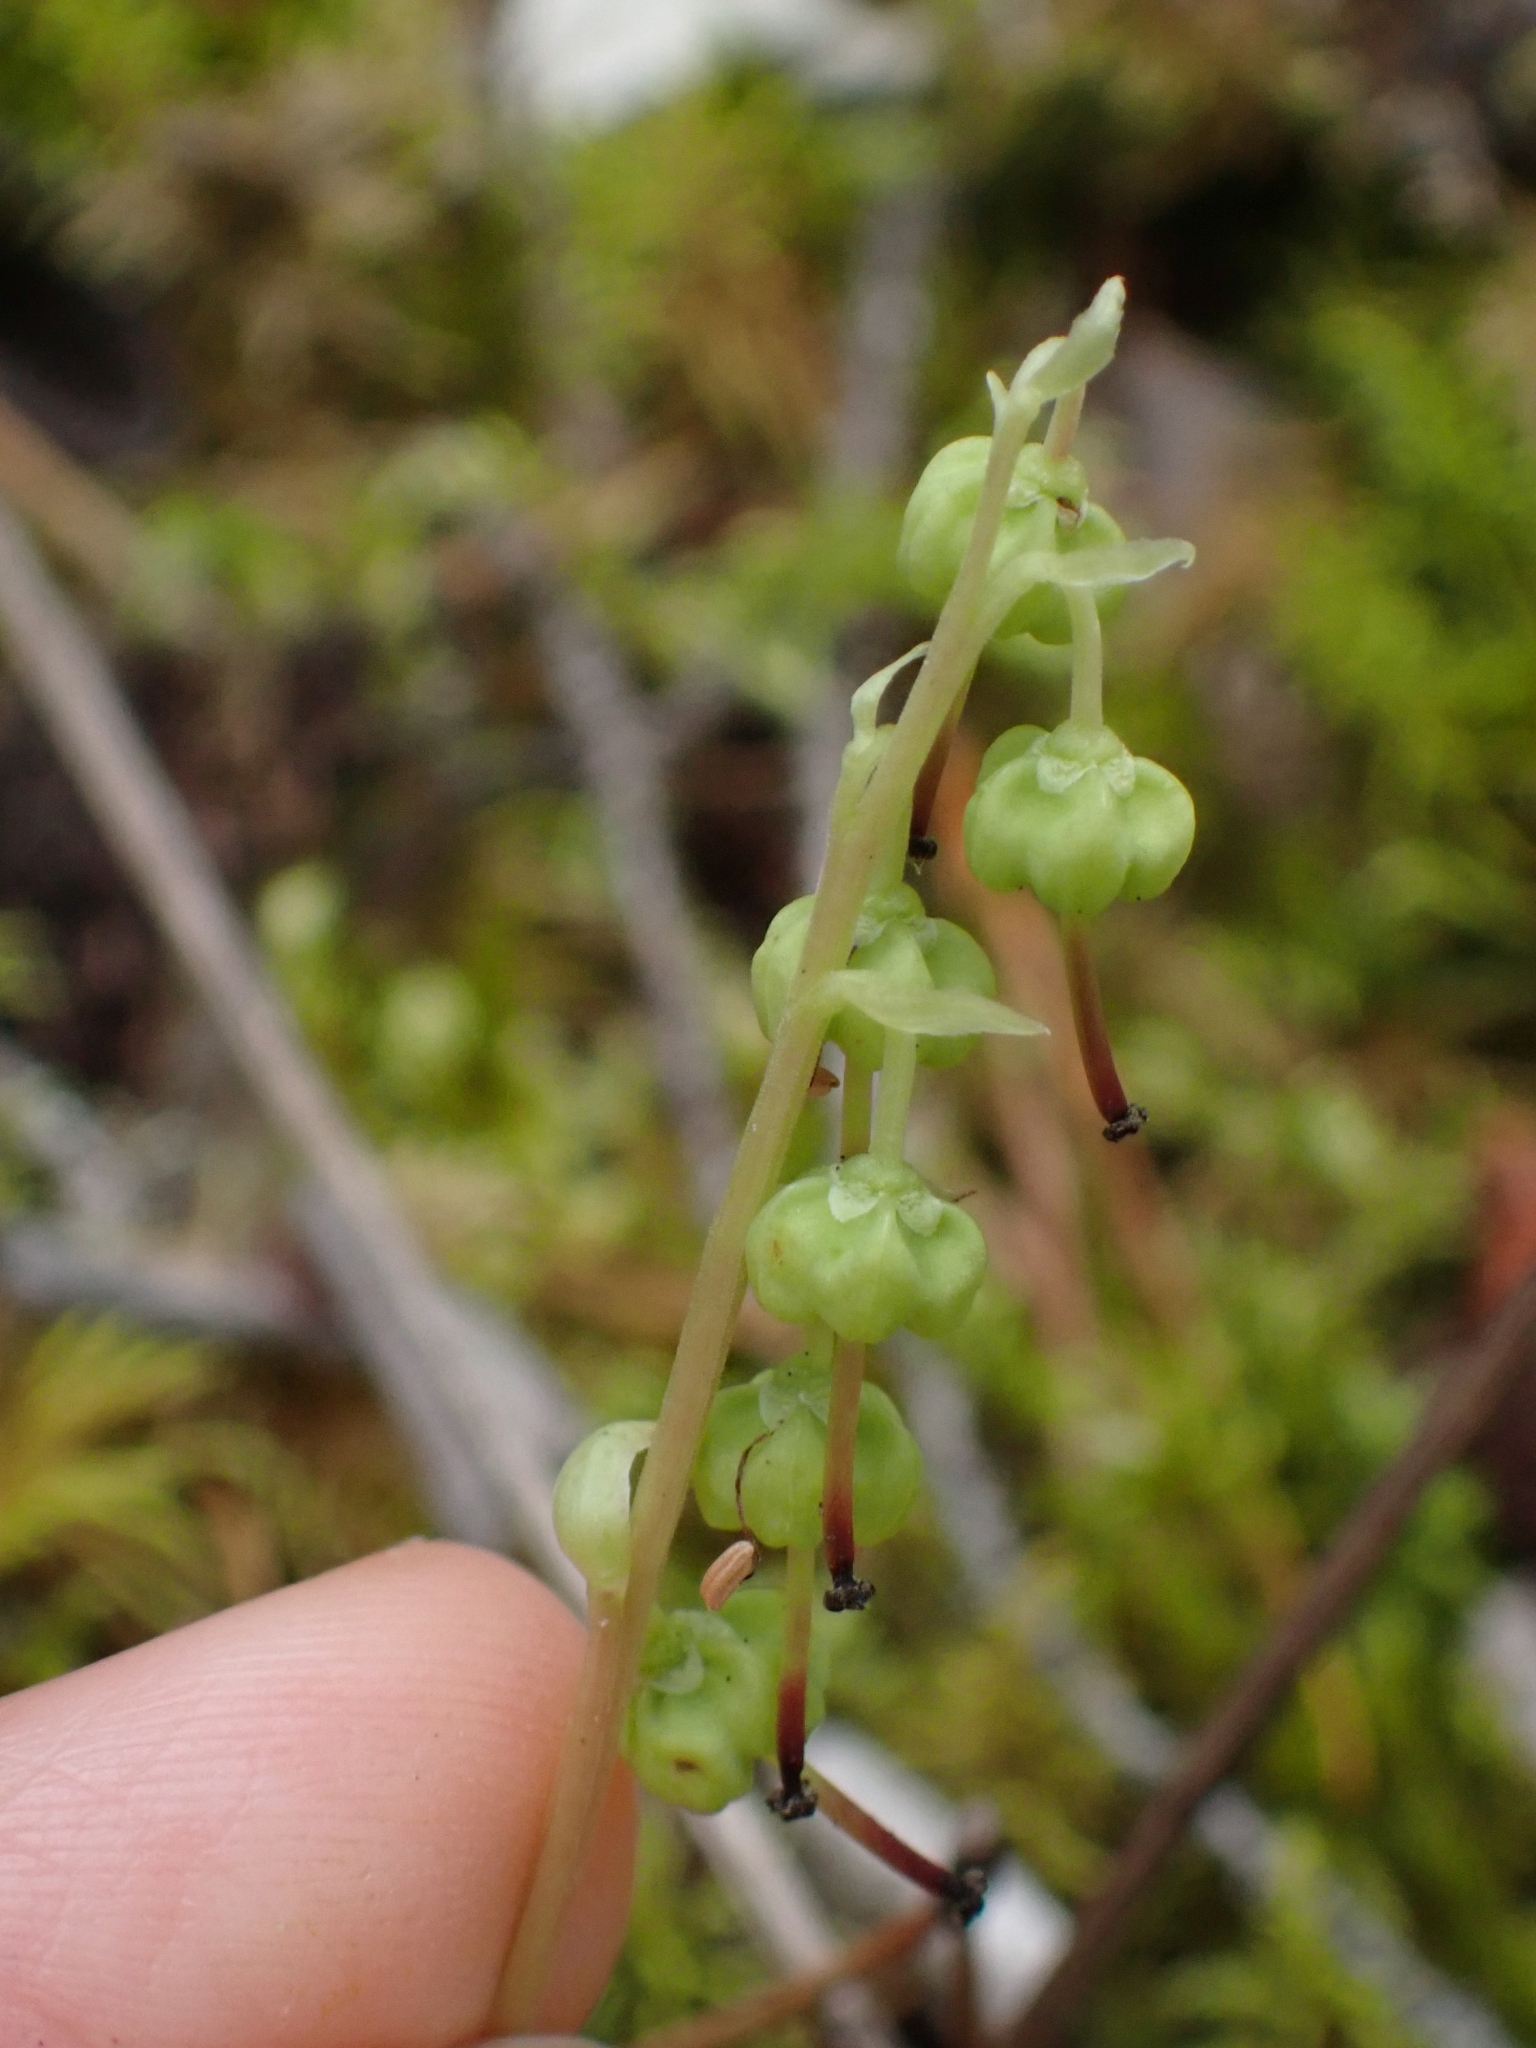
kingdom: Plantae
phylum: Tracheophyta
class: Magnoliopsida
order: Ericales
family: Ericaceae
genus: Orthilia
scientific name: Orthilia secunda
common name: One-sided orthilia
